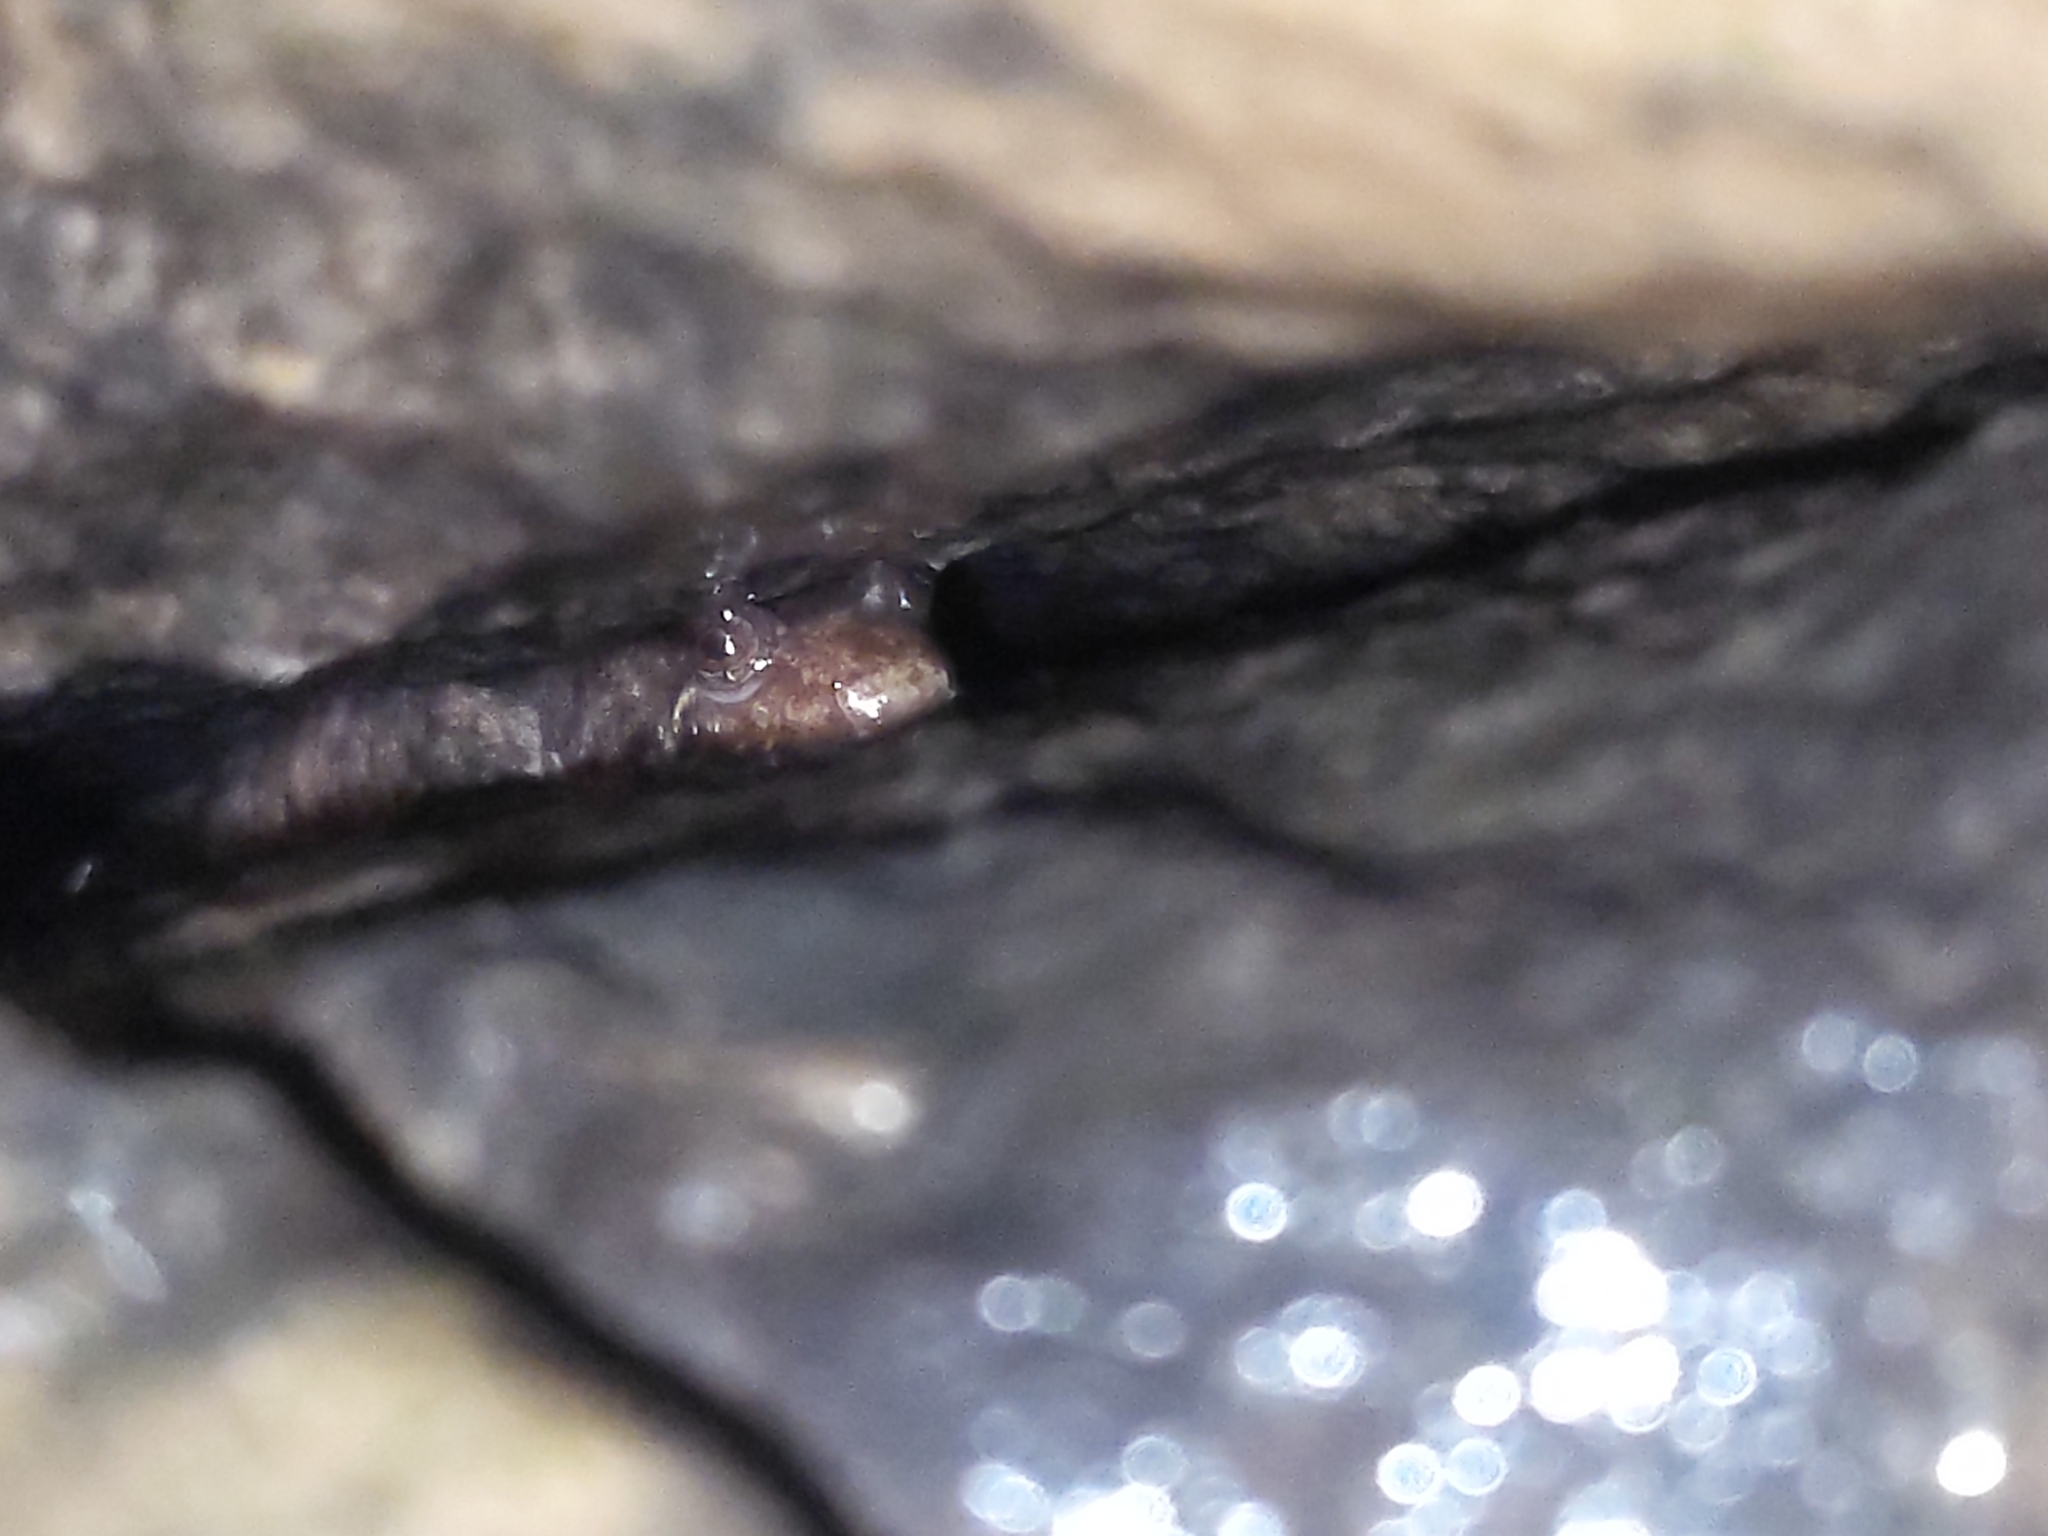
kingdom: Animalia
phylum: Chordata
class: Amphibia
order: Caudata
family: Plethodontidae
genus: Desmognathus
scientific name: Desmognathus monticola
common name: Seal salamander
